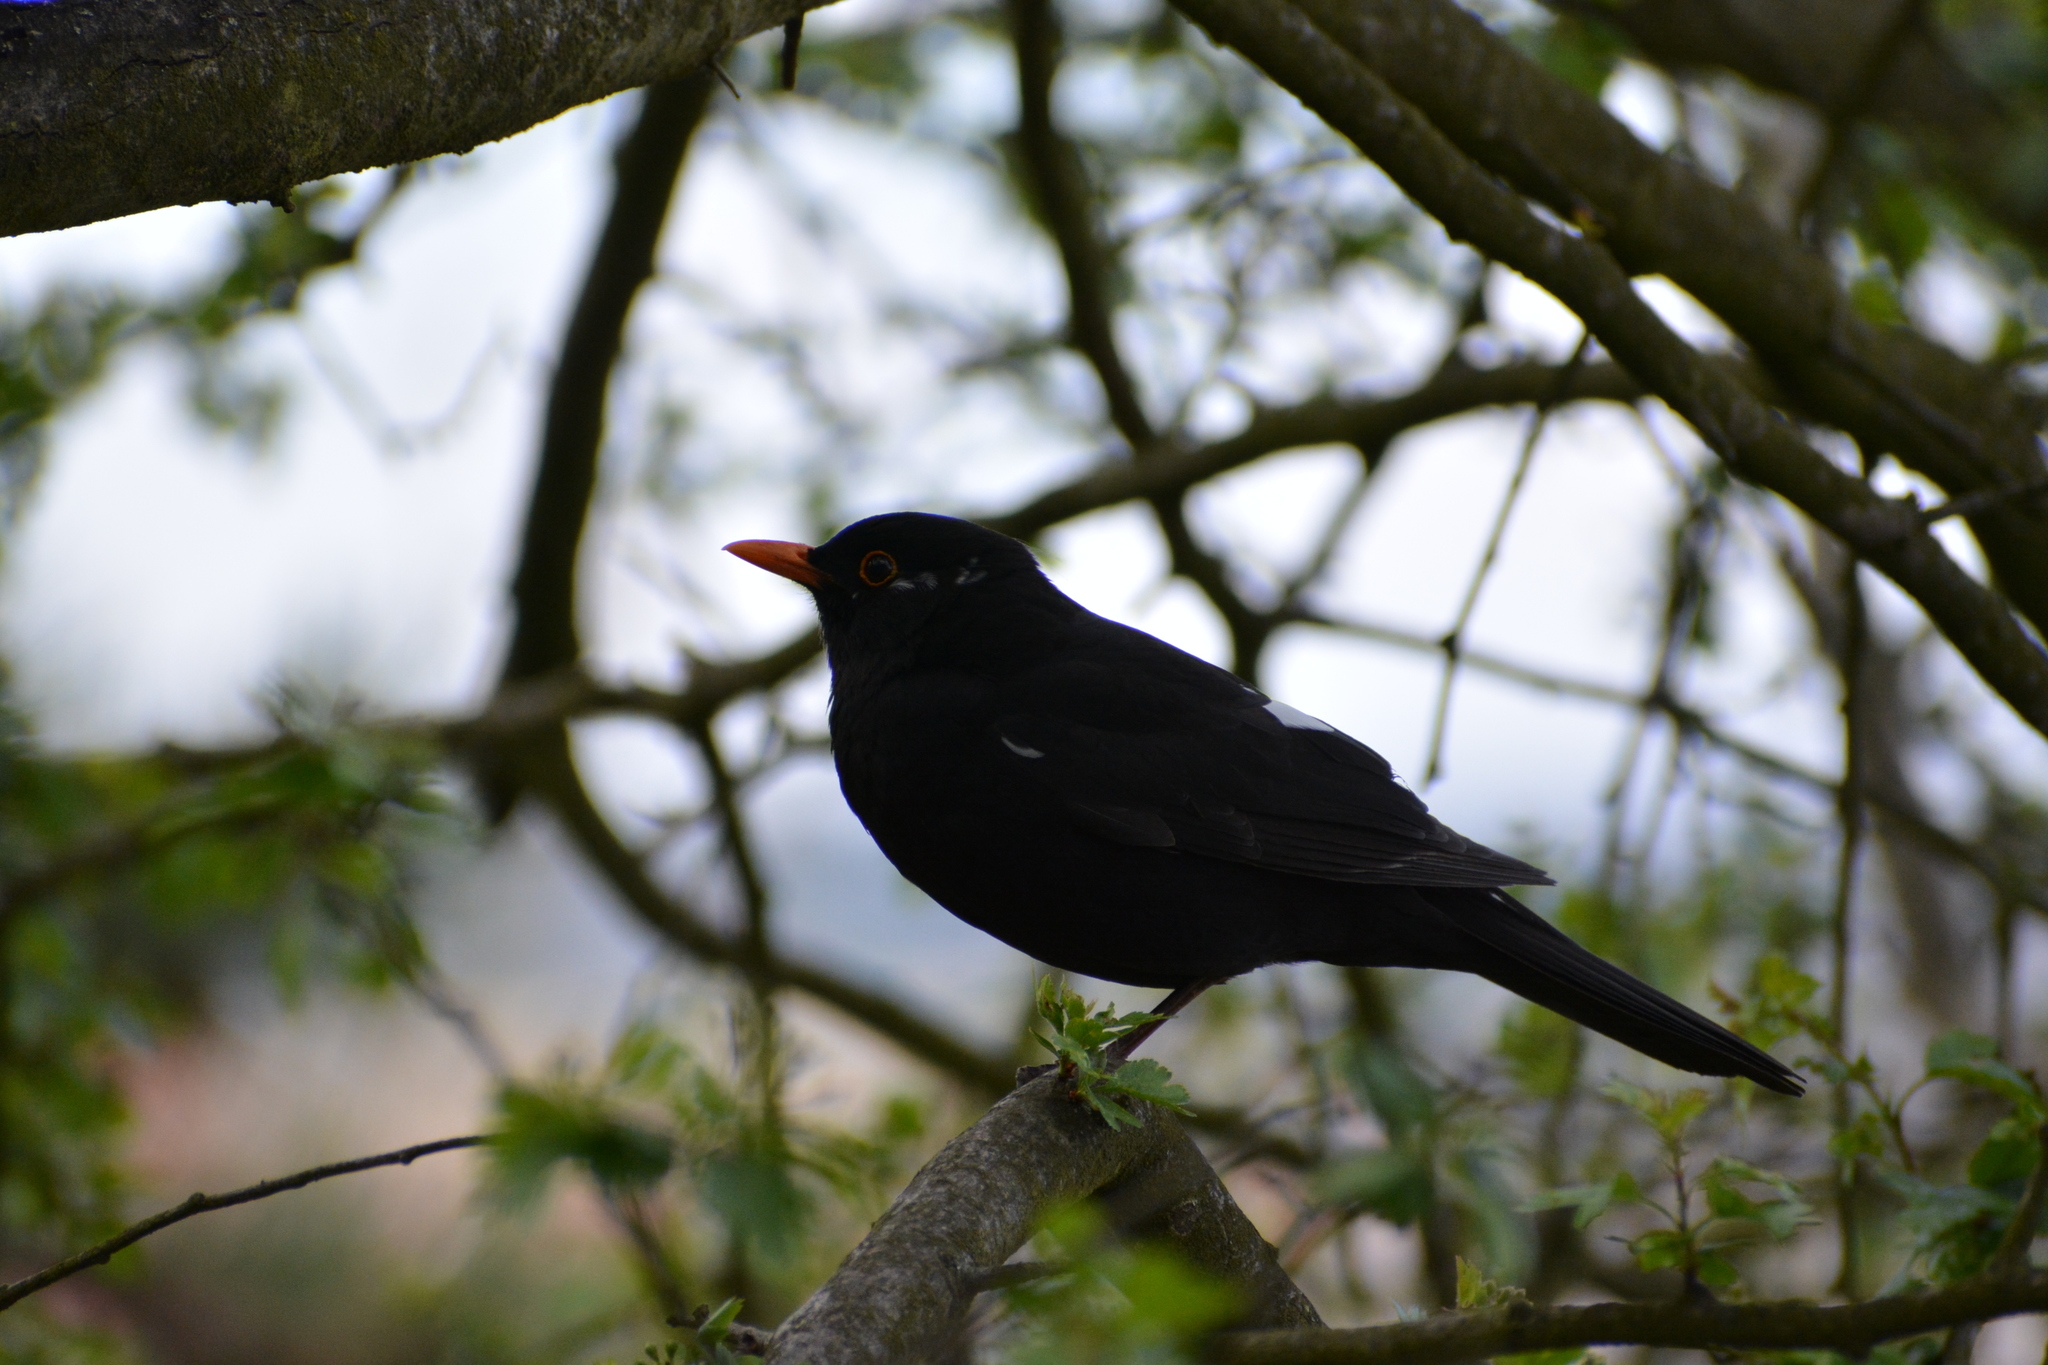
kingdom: Animalia
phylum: Chordata
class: Aves
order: Passeriformes
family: Turdidae
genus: Turdus
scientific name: Turdus merula
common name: Common blackbird
